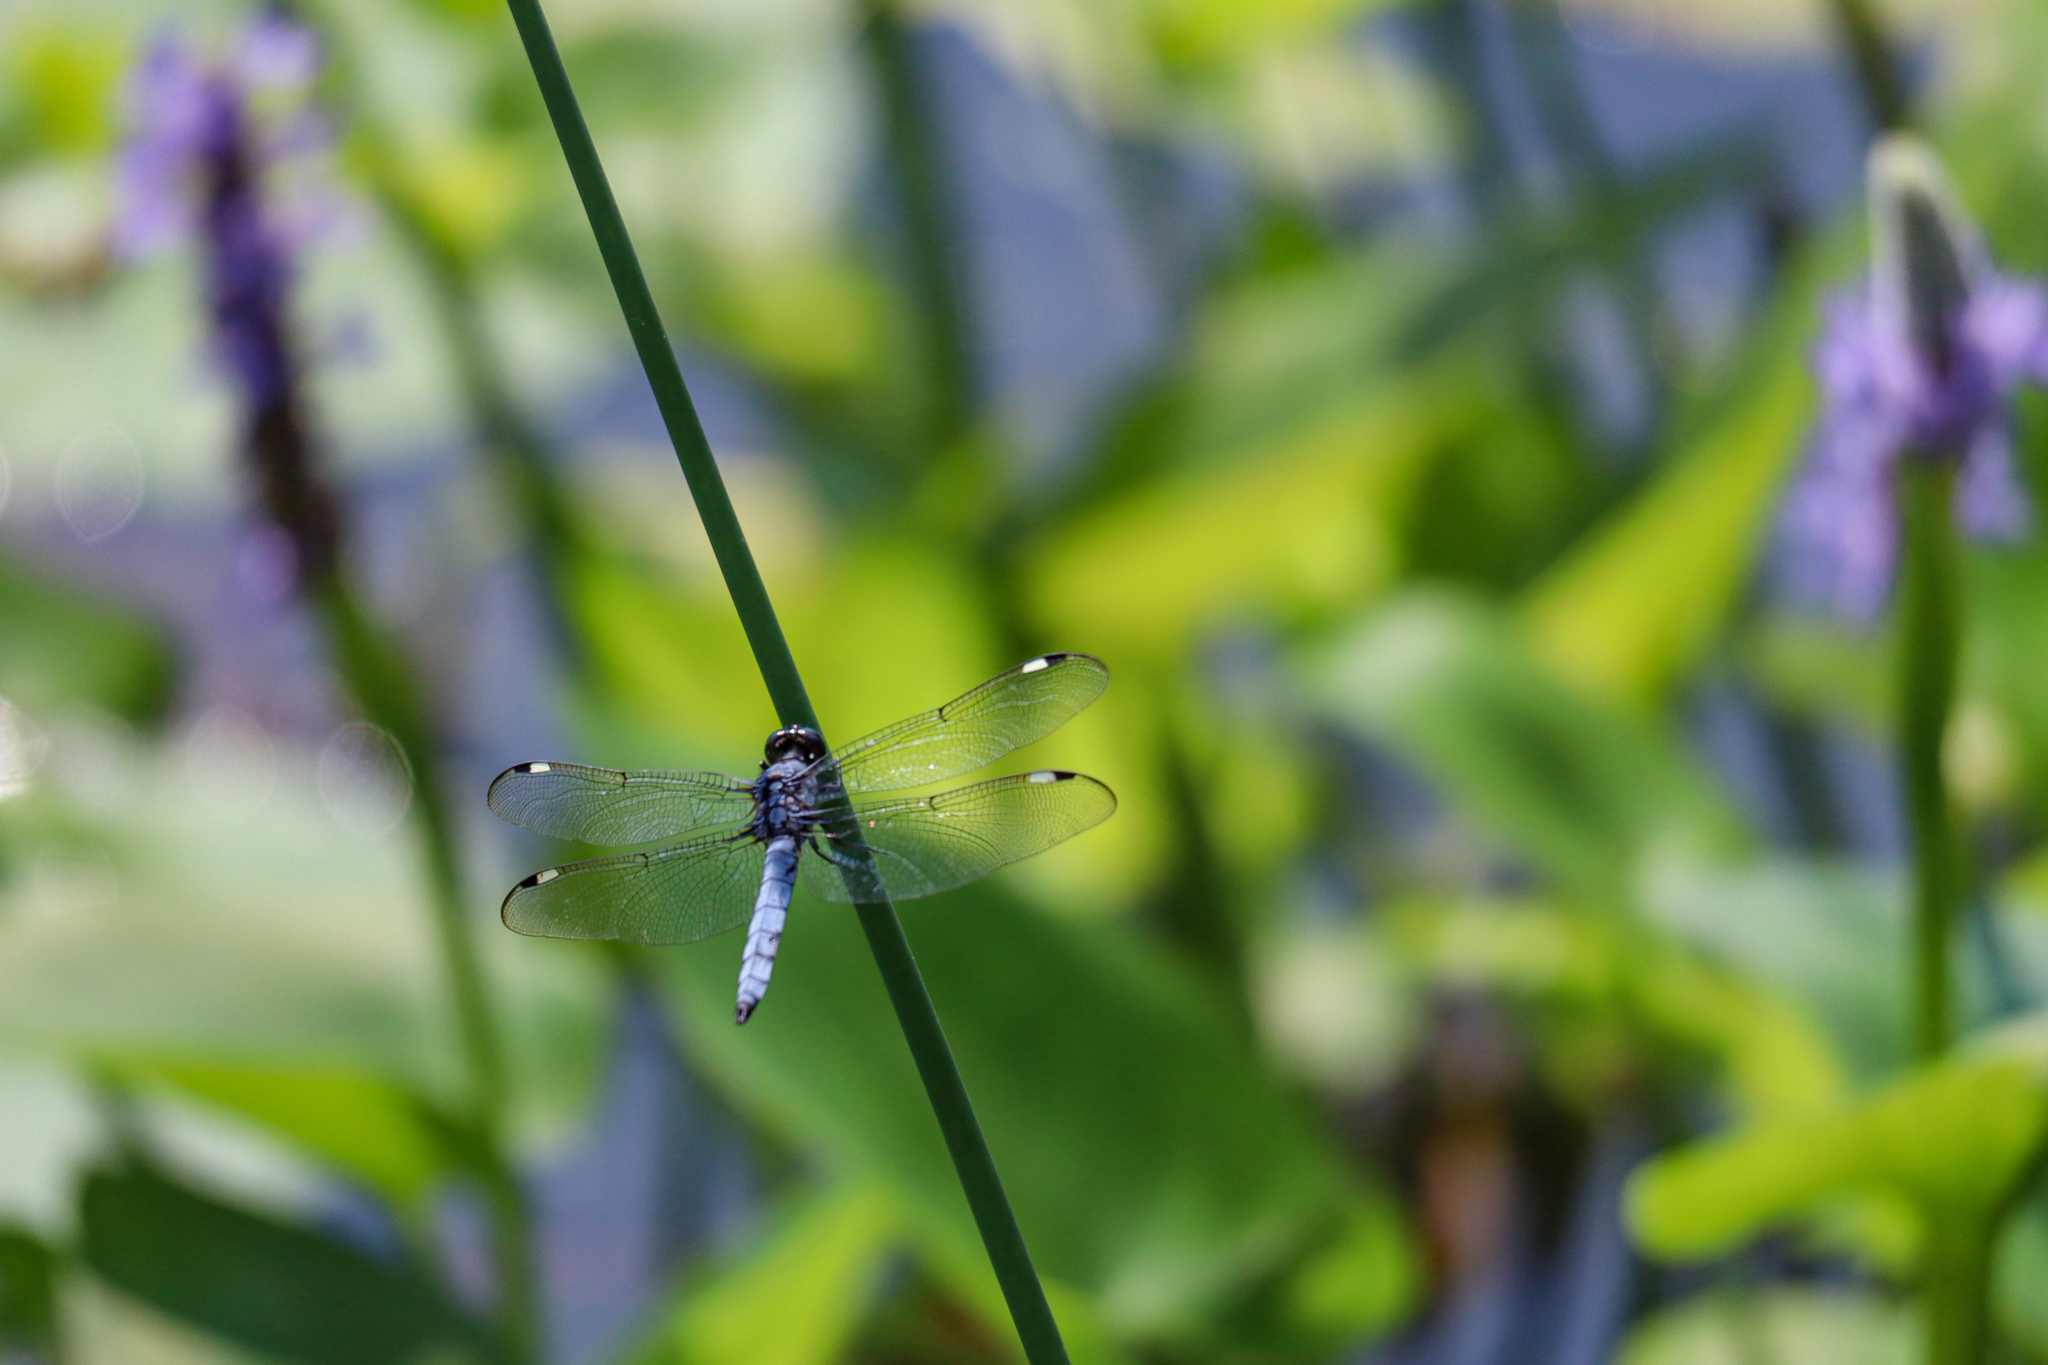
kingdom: Animalia
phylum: Arthropoda
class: Insecta
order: Odonata
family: Libellulidae
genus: Libellula
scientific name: Libellula cyanea
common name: Spangled skimmer
